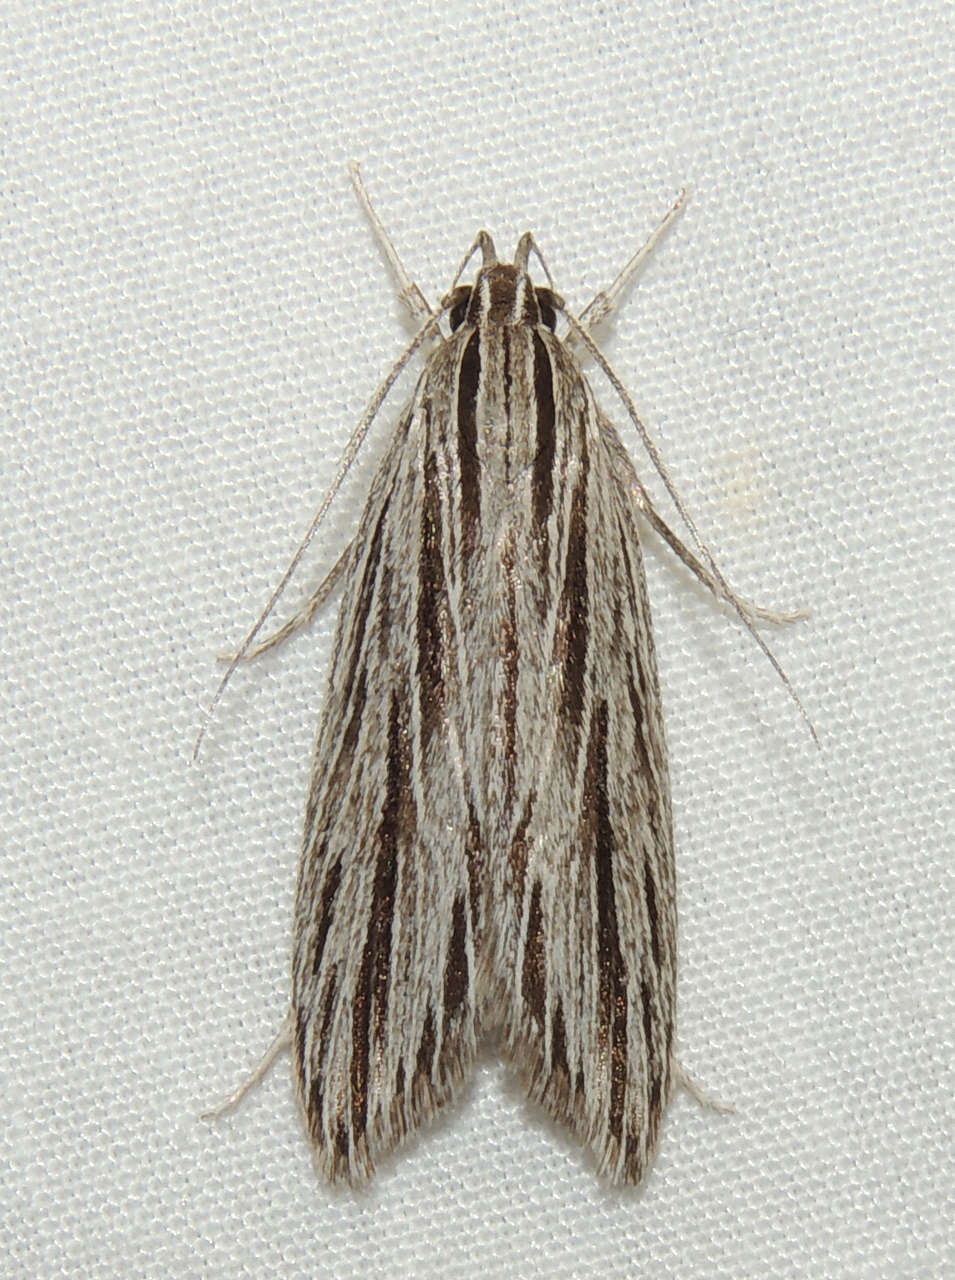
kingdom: Animalia
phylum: Arthropoda
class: Insecta
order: Lepidoptera
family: Xyloryctidae
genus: Leistarcha
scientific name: Leistarcha scitissimella
